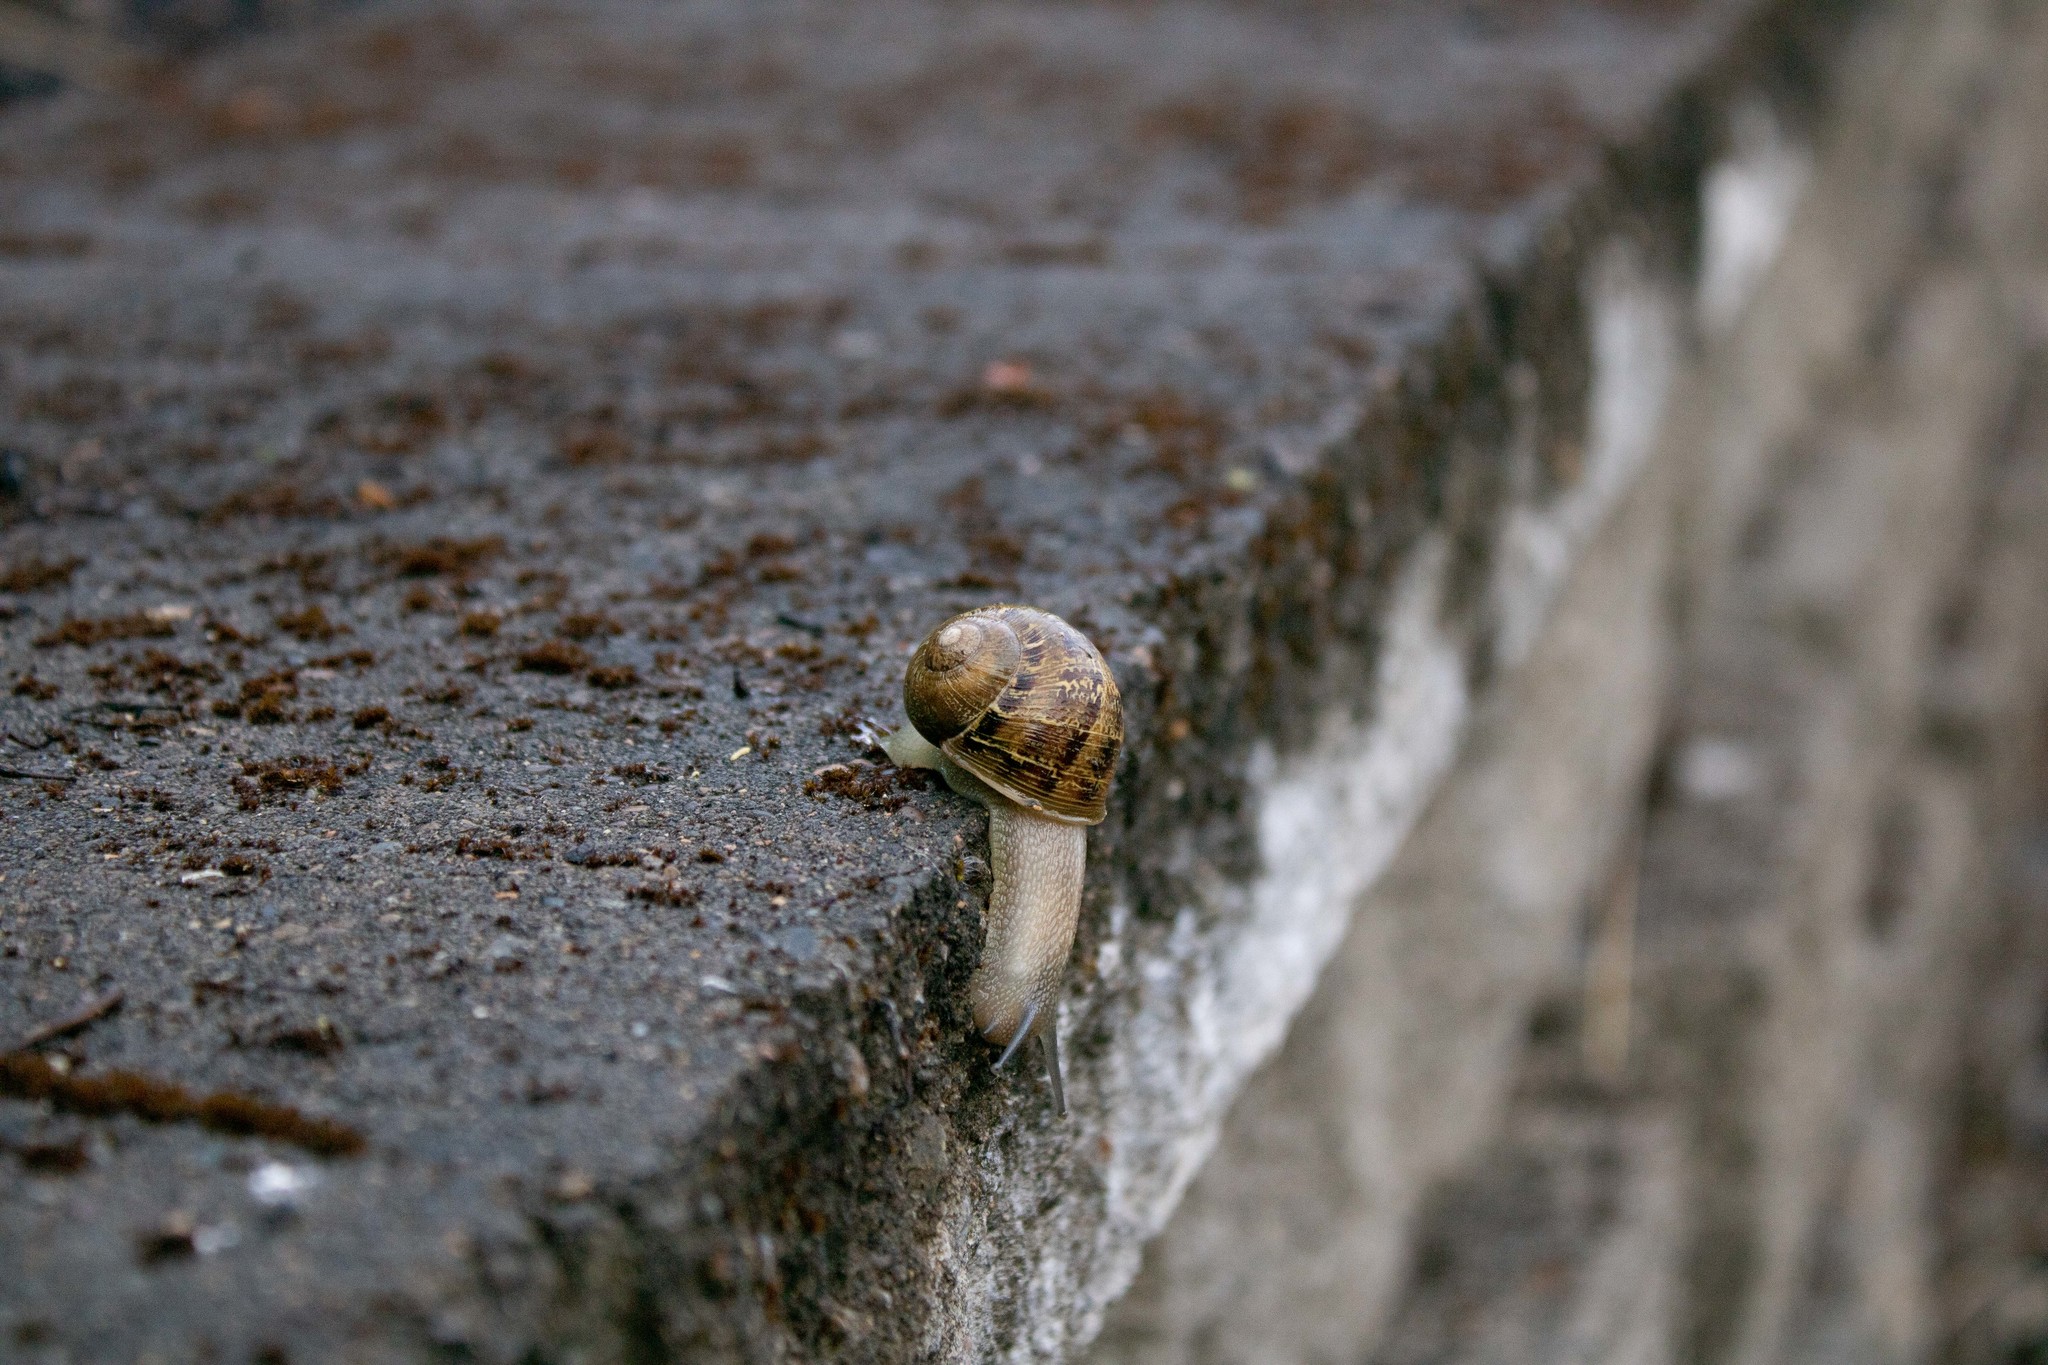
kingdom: Animalia
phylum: Mollusca
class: Gastropoda
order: Stylommatophora
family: Helicidae
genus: Cornu
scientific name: Cornu aspersum
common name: Brown garden snail
